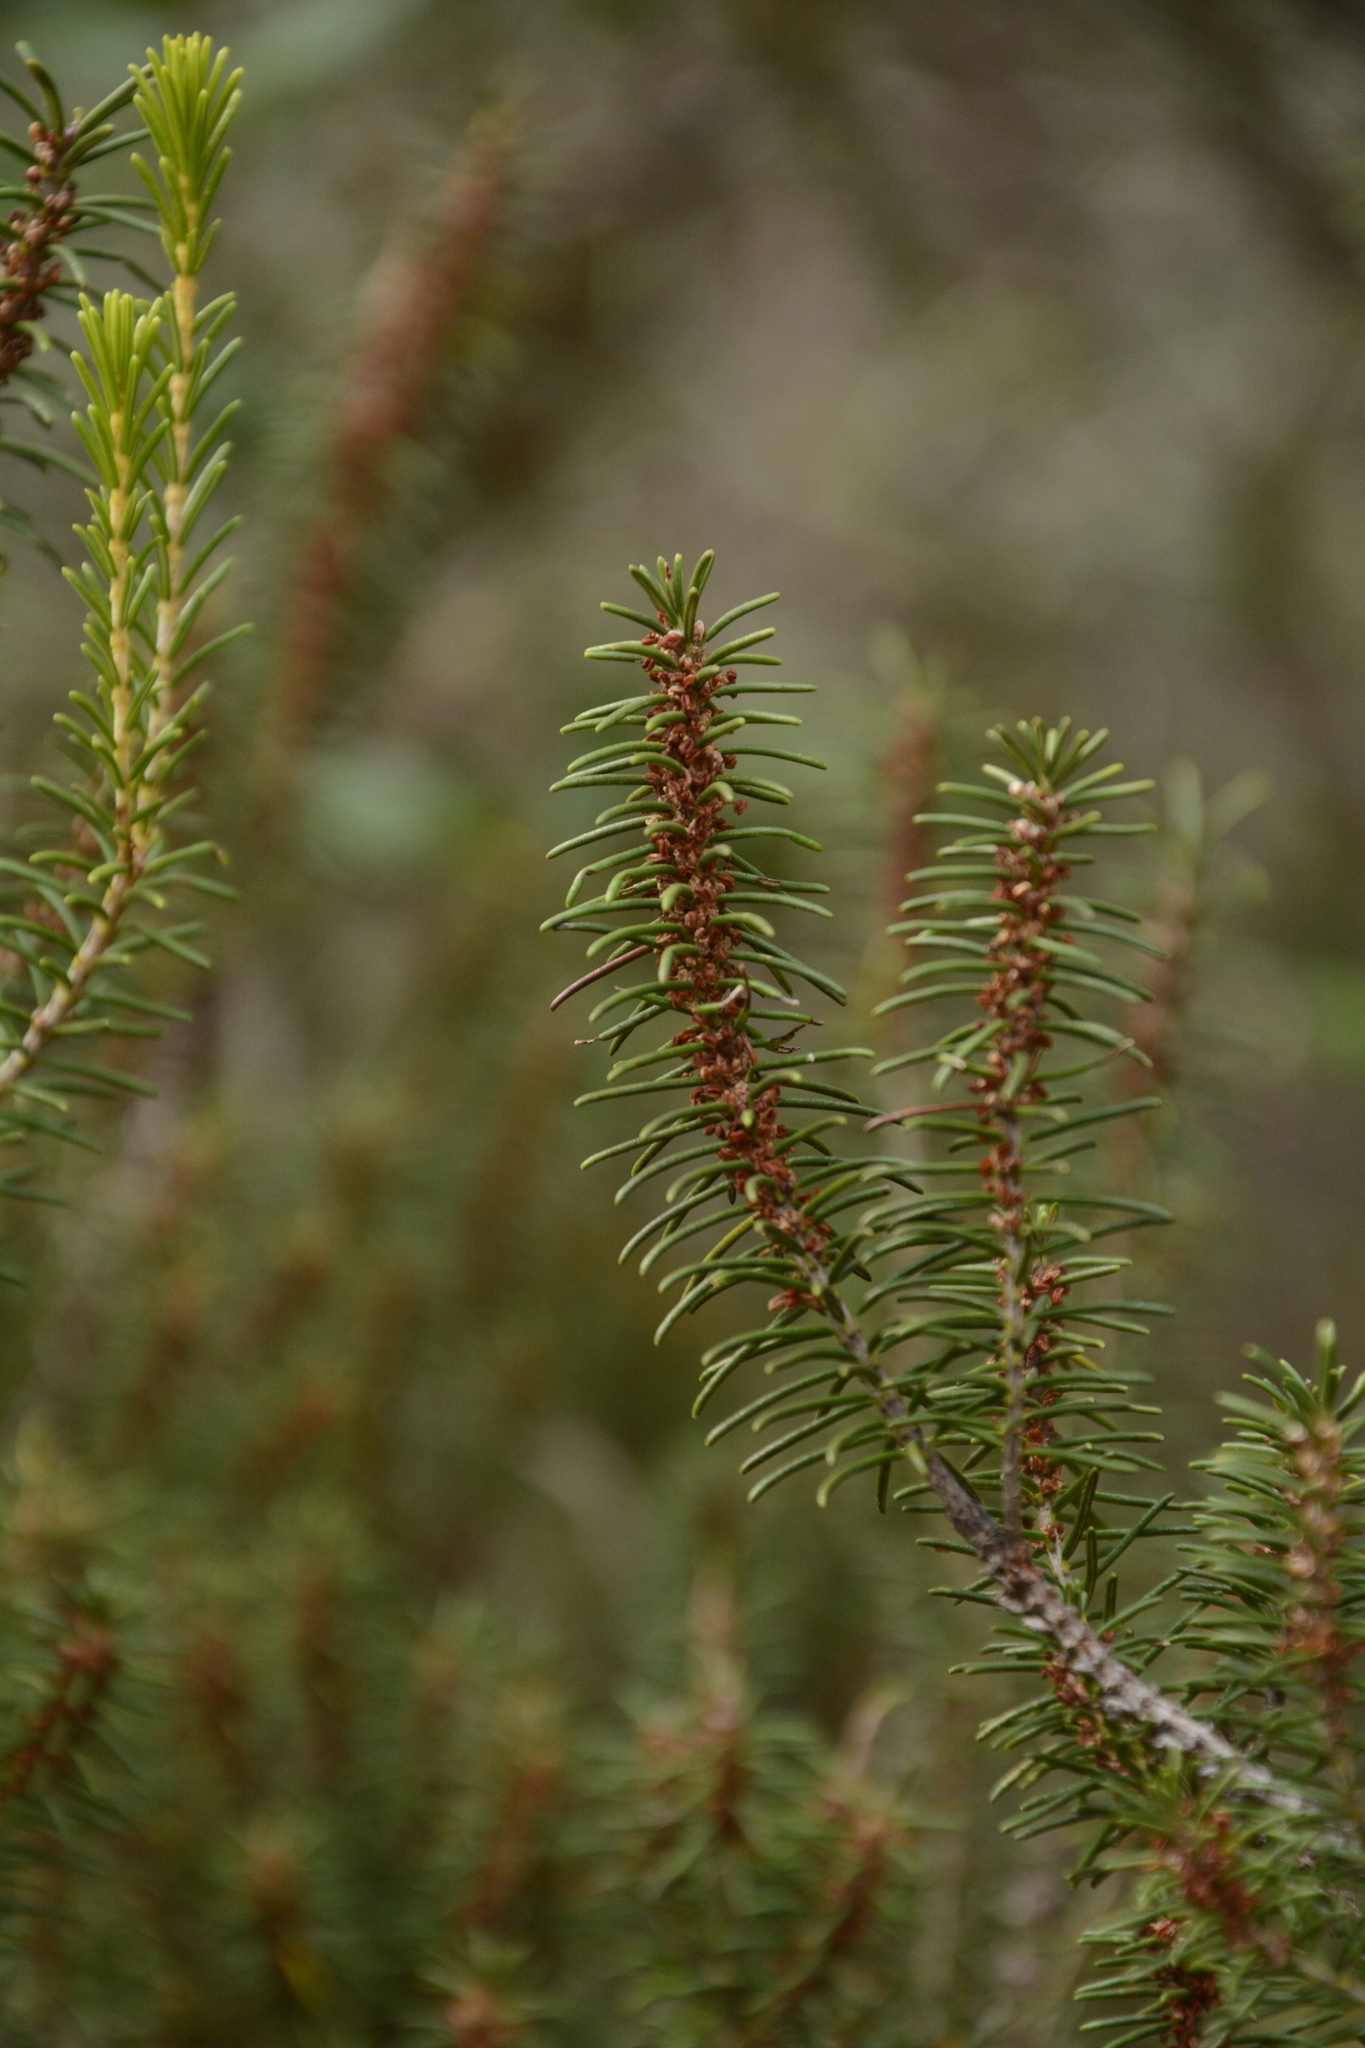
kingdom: Plantae
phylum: Tracheophyta
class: Magnoliopsida
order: Ericales
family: Ericaceae
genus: Ceratiola
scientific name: Ceratiola ericoides
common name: Sandhill-rosemary
